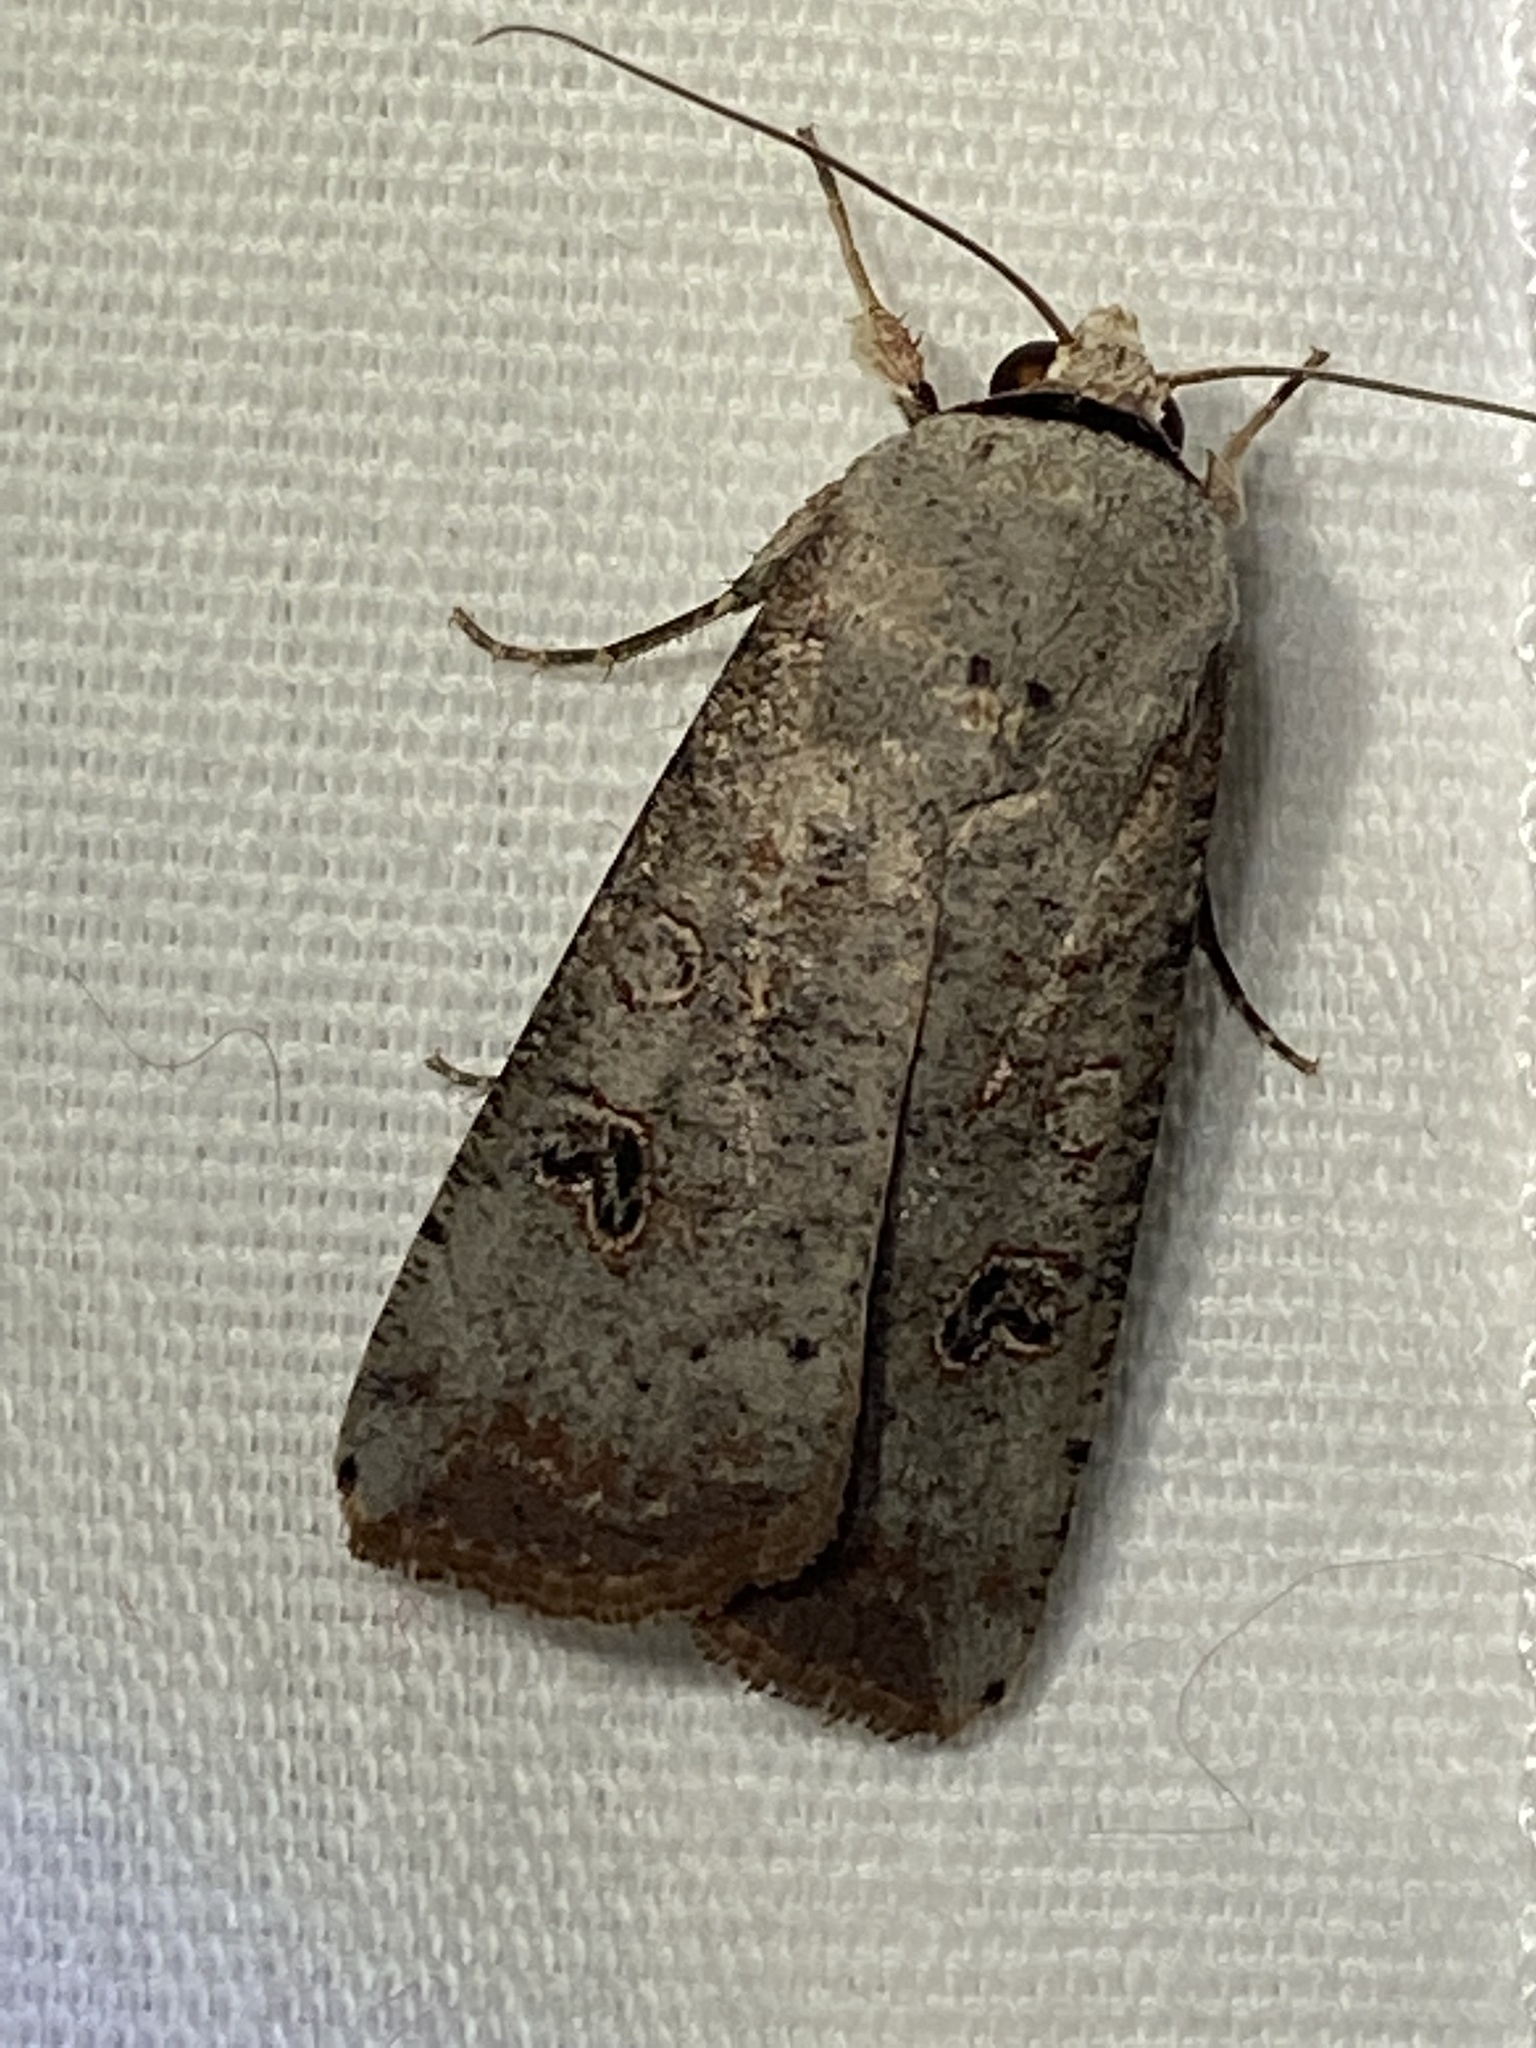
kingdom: Animalia
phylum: Arthropoda
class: Insecta
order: Lepidoptera
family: Noctuidae
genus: Anicla
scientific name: Anicla infecta
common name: Green cutworm
